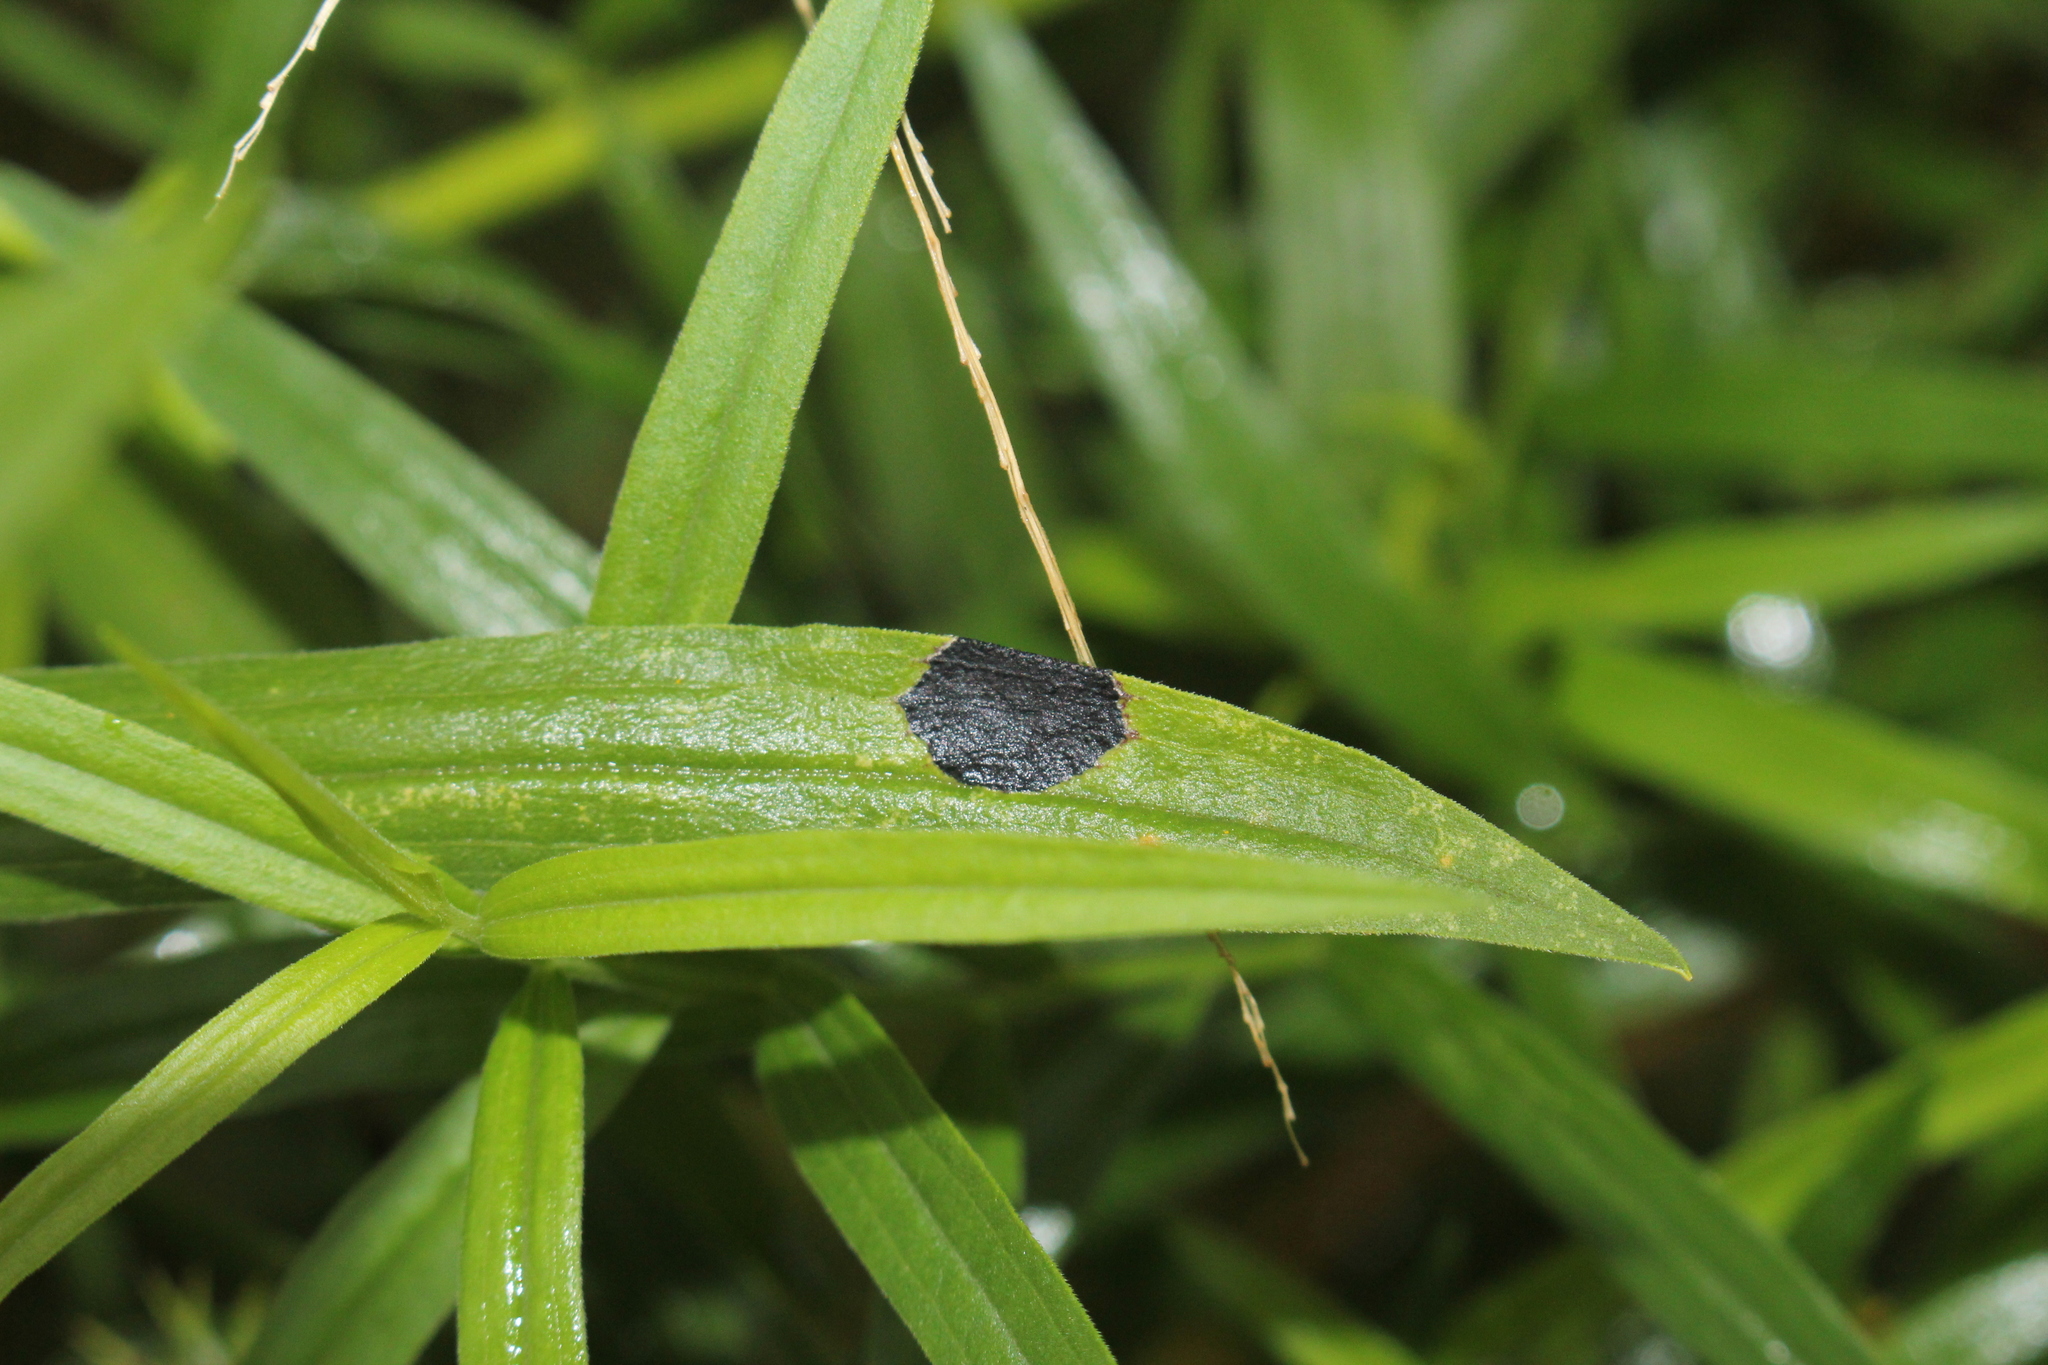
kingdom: Animalia
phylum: Arthropoda
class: Insecta
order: Diptera
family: Cecidomyiidae
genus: Asteromyia
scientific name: Asteromyia euthamiae
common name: Euthamia leaf gall midge
